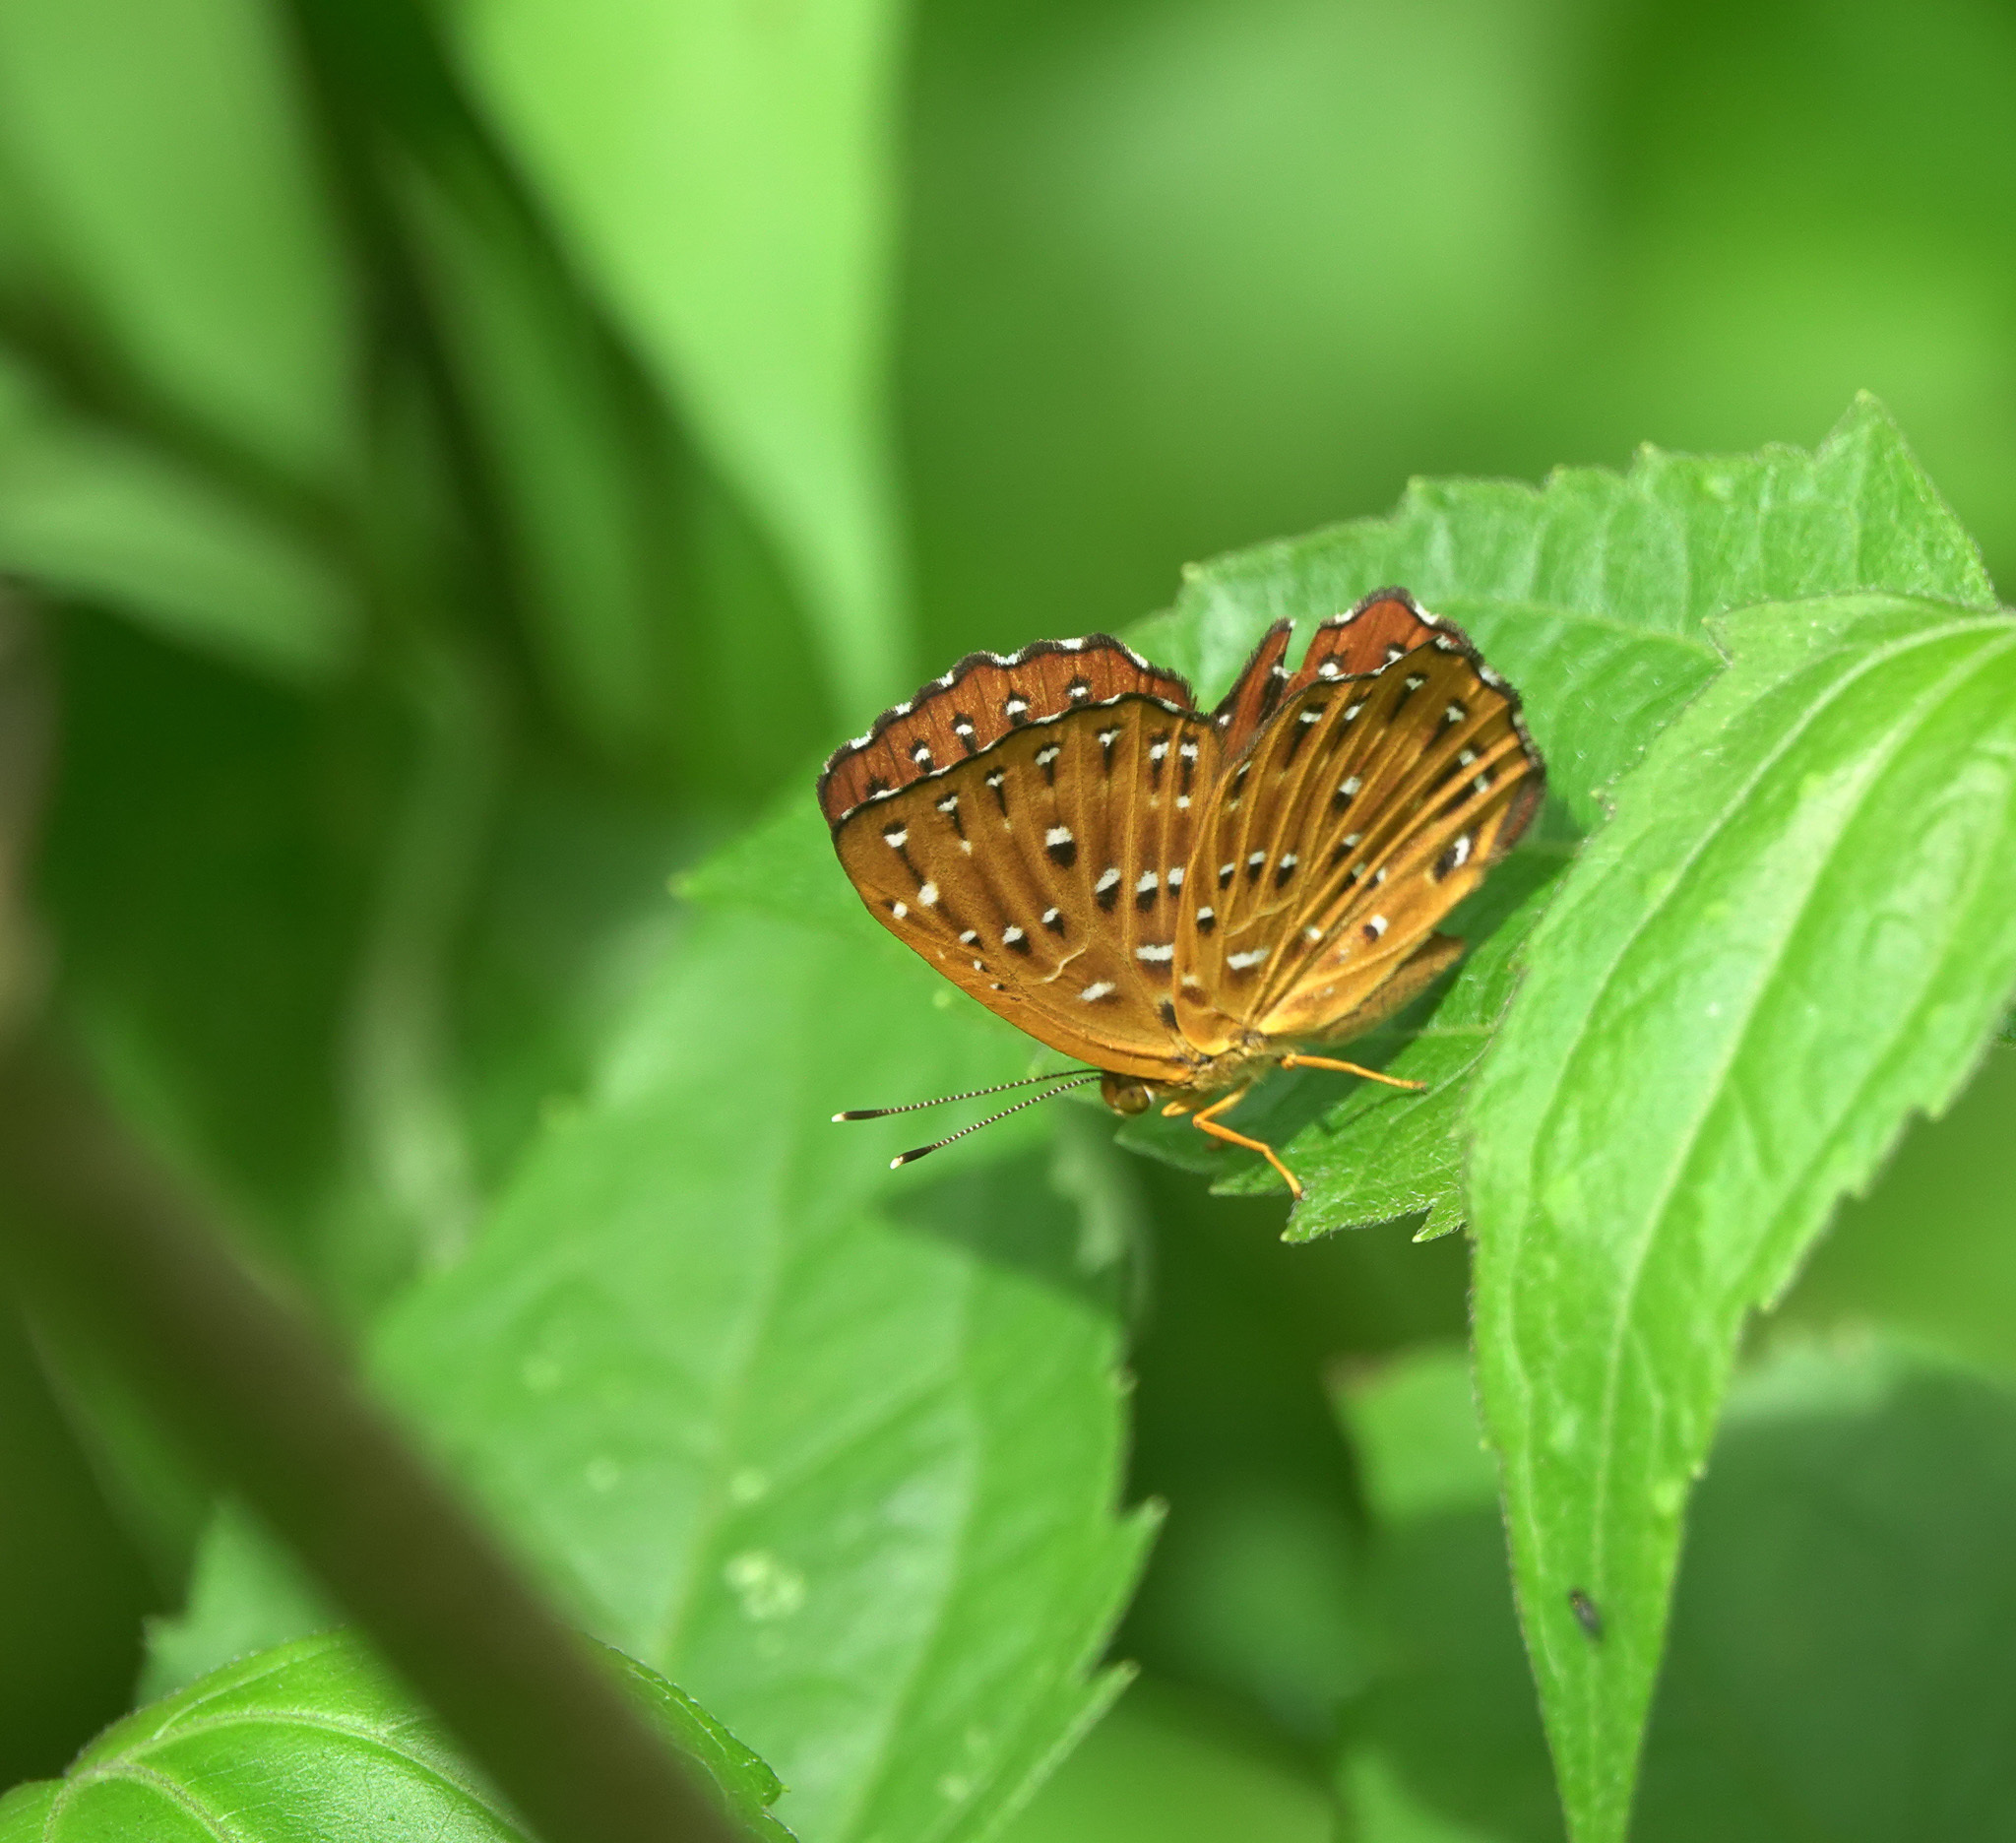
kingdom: Animalia
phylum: Arthropoda
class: Insecta
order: Lepidoptera
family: Riodinidae
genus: Zemeros
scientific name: Zemeros flegyas
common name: Punchinello
